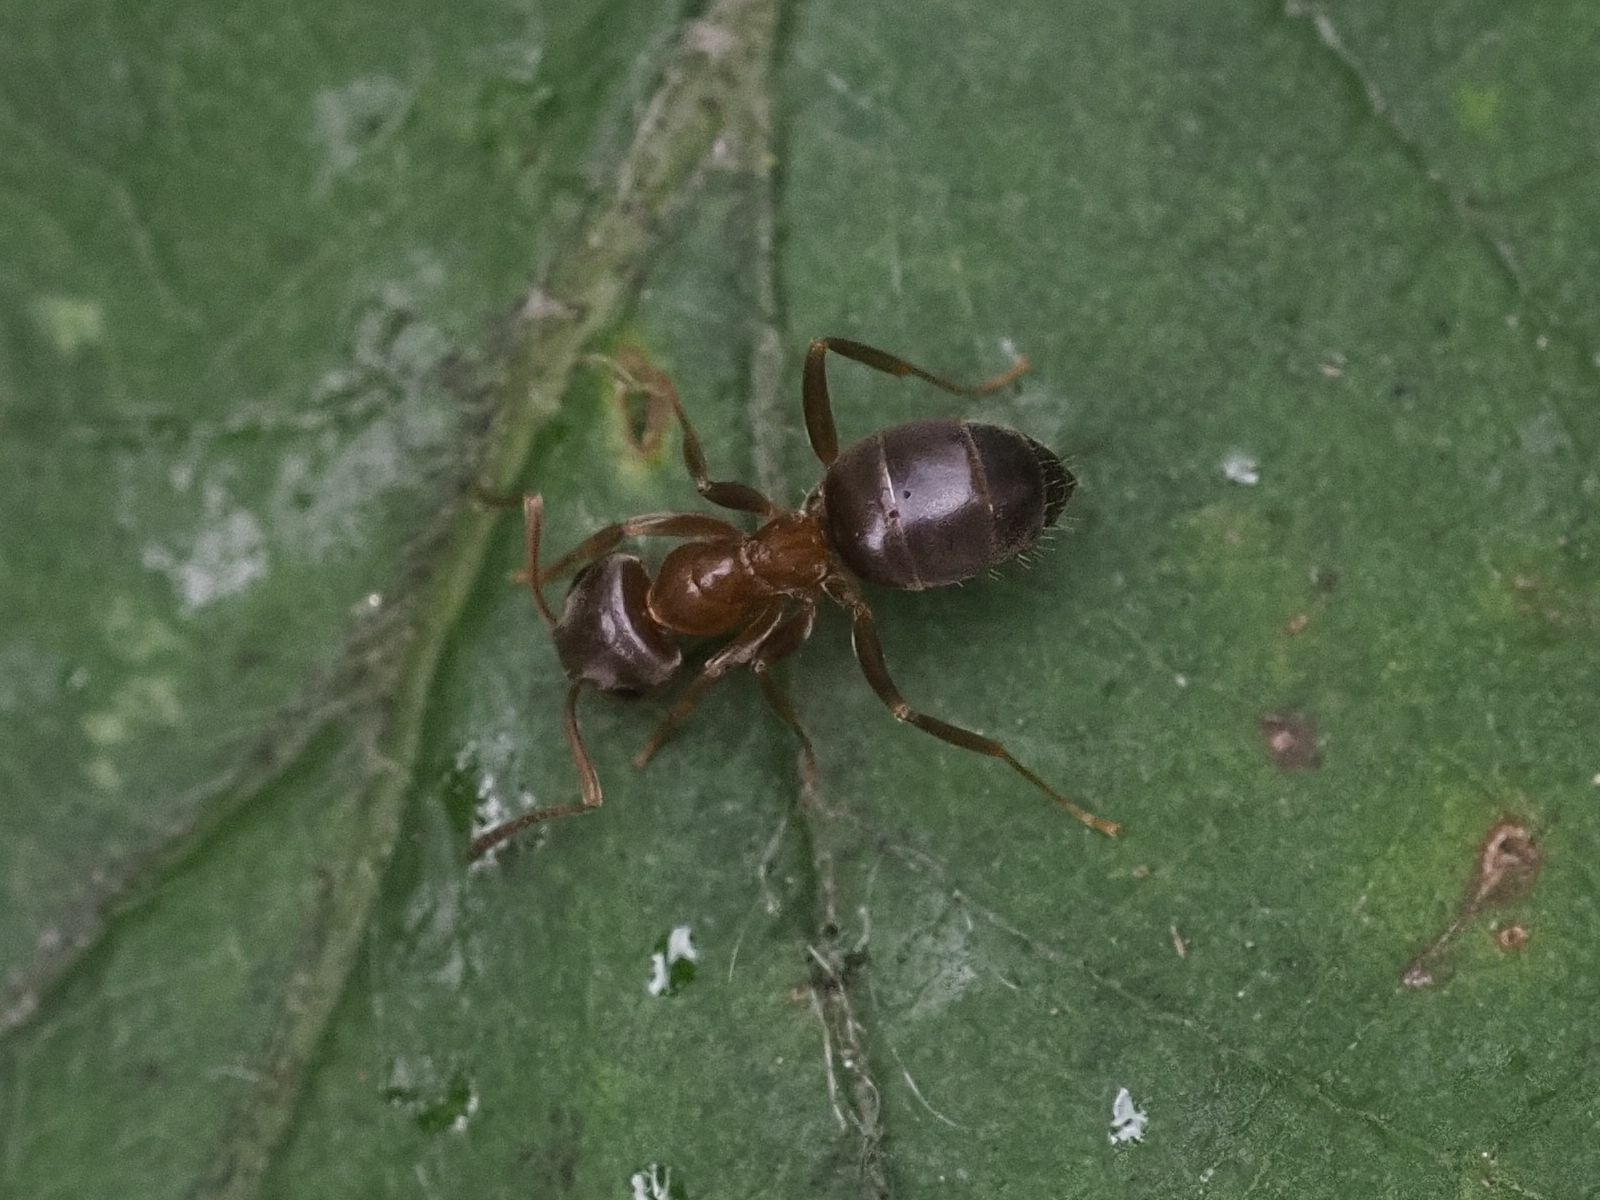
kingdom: Animalia
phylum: Arthropoda
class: Insecta
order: Hymenoptera
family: Formicidae
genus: Lasius
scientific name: Lasius brunneus
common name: Brown ant
